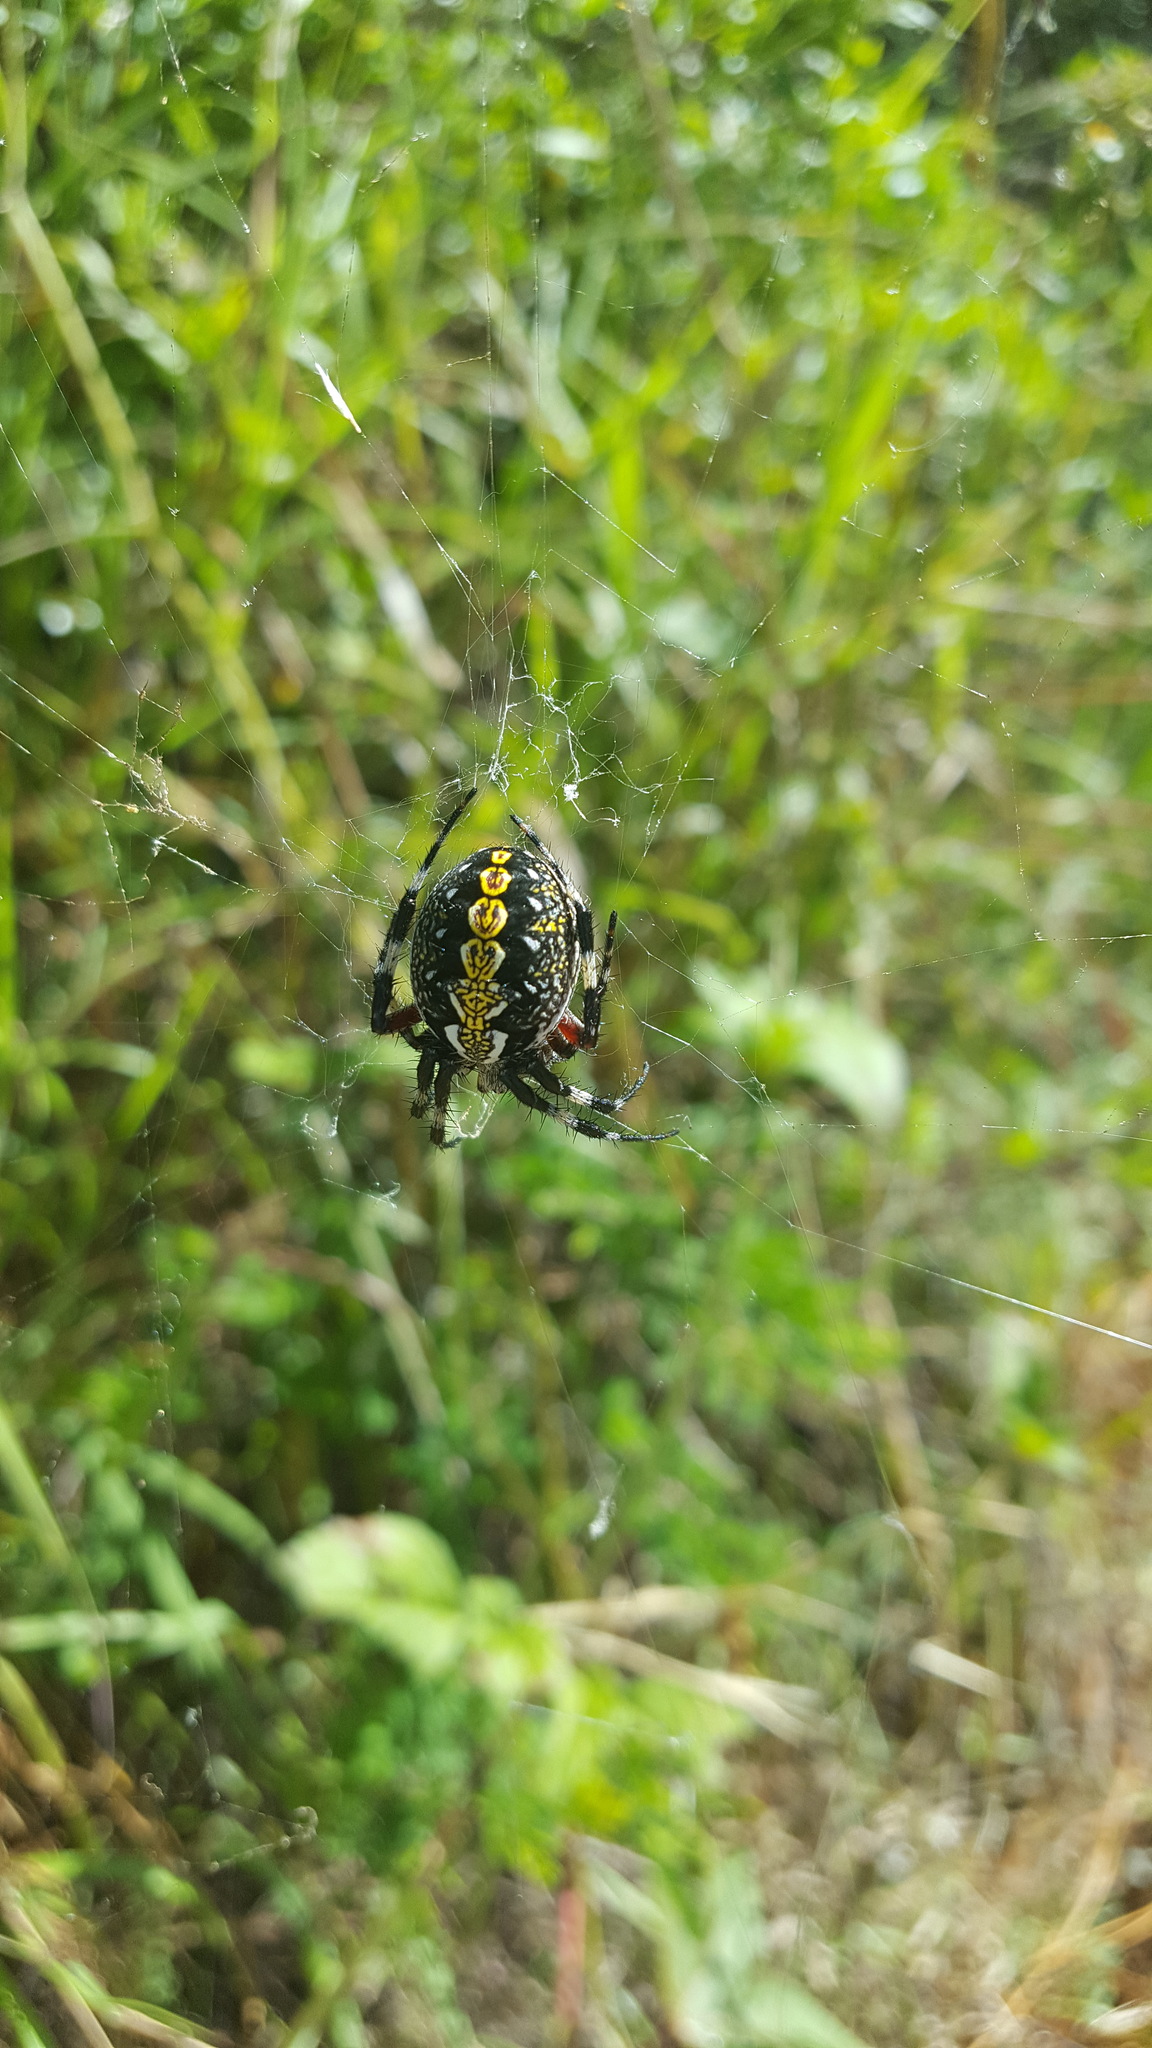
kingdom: Animalia
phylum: Arthropoda
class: Arachnida
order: Araneae
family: Araneidae
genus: Neoscona
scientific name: Neoscona oaxacensis
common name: Orb weavers
